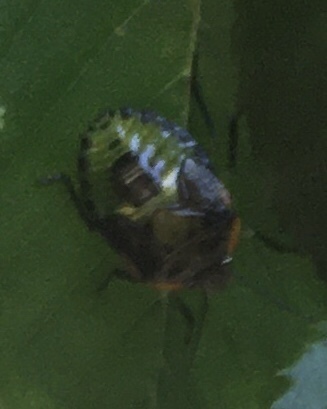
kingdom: Animalia
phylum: Arthropoda
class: Insecta
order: Hemiptera
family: Pentatomidae
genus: Chinavia
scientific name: Chinavia hilaris
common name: Green stink bug
